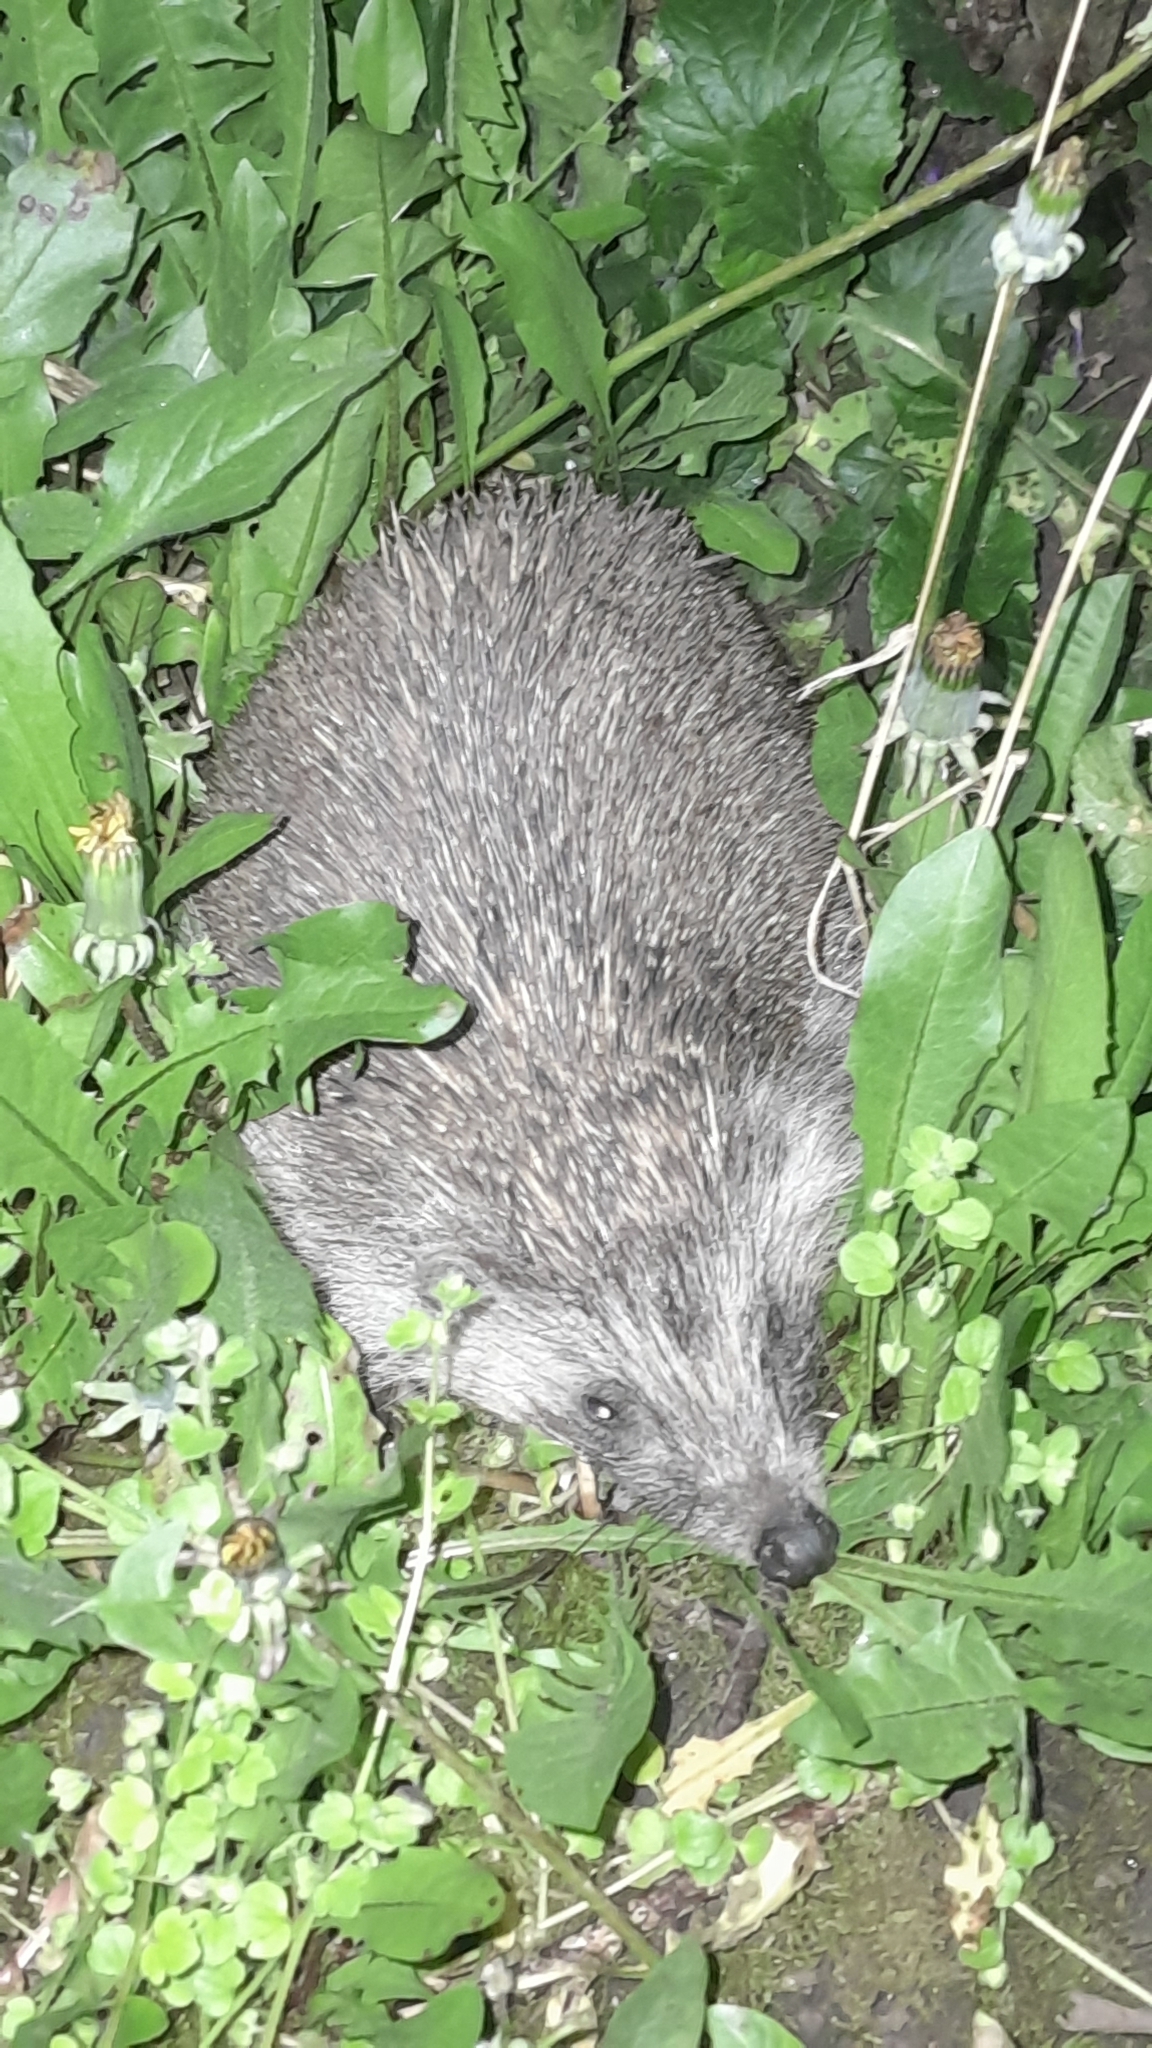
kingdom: Animalia
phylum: Chordata
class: Mammalia
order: Erinaceomorpha
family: Erinaceidae
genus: Erinaceus
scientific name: Erinaceus roumanicus
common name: Northern white-breasted hedgehog
